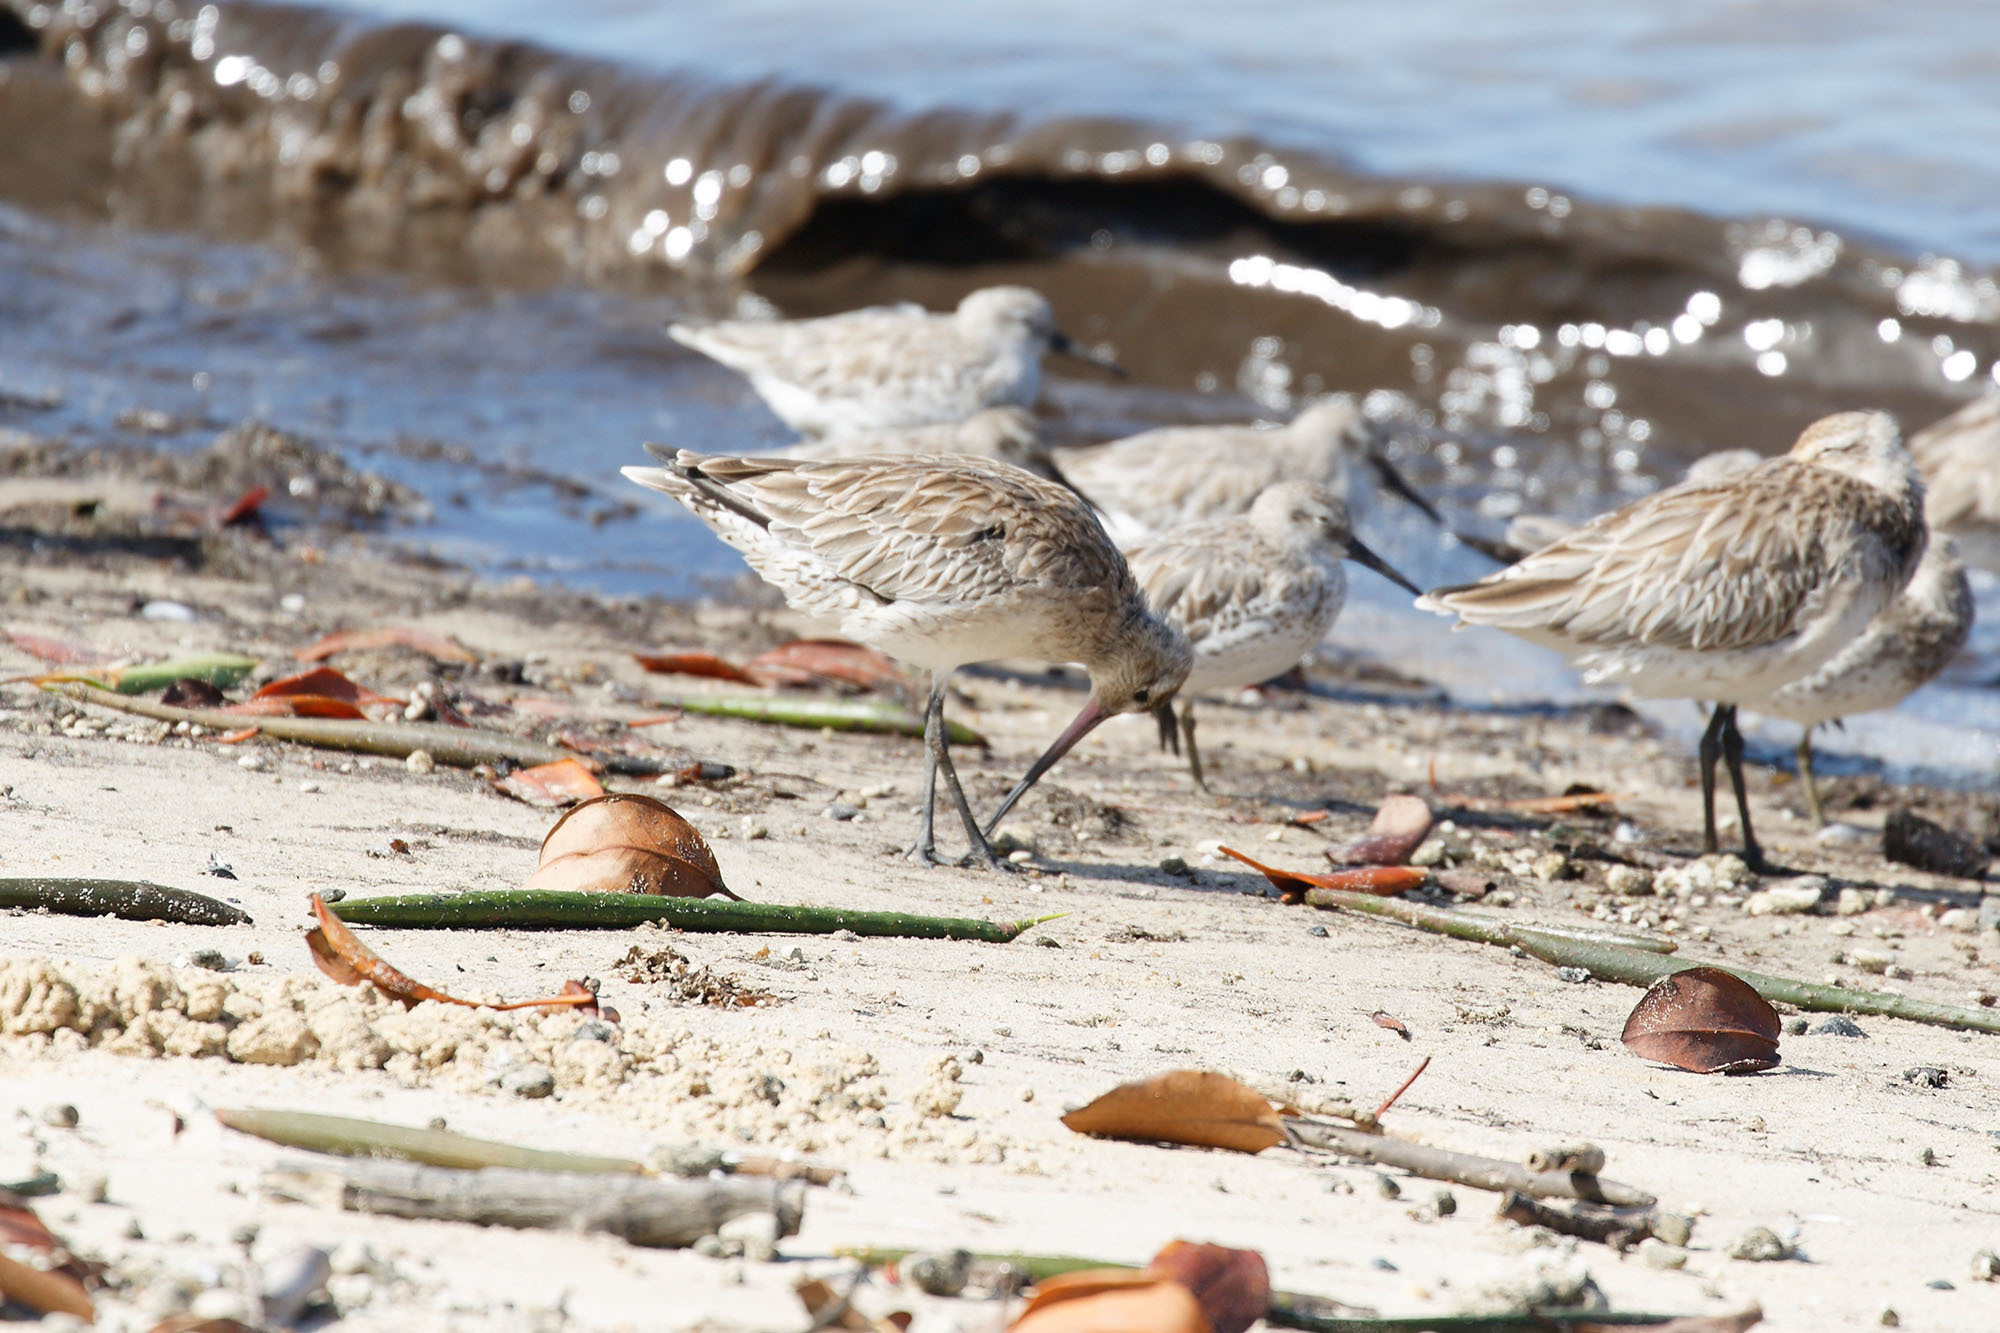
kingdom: Animalia
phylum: Chordata
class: Aves
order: Charadriiformes
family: Scolopacidae
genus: Limosa
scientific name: Limosa lapponica
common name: Bar-tailed godwit
